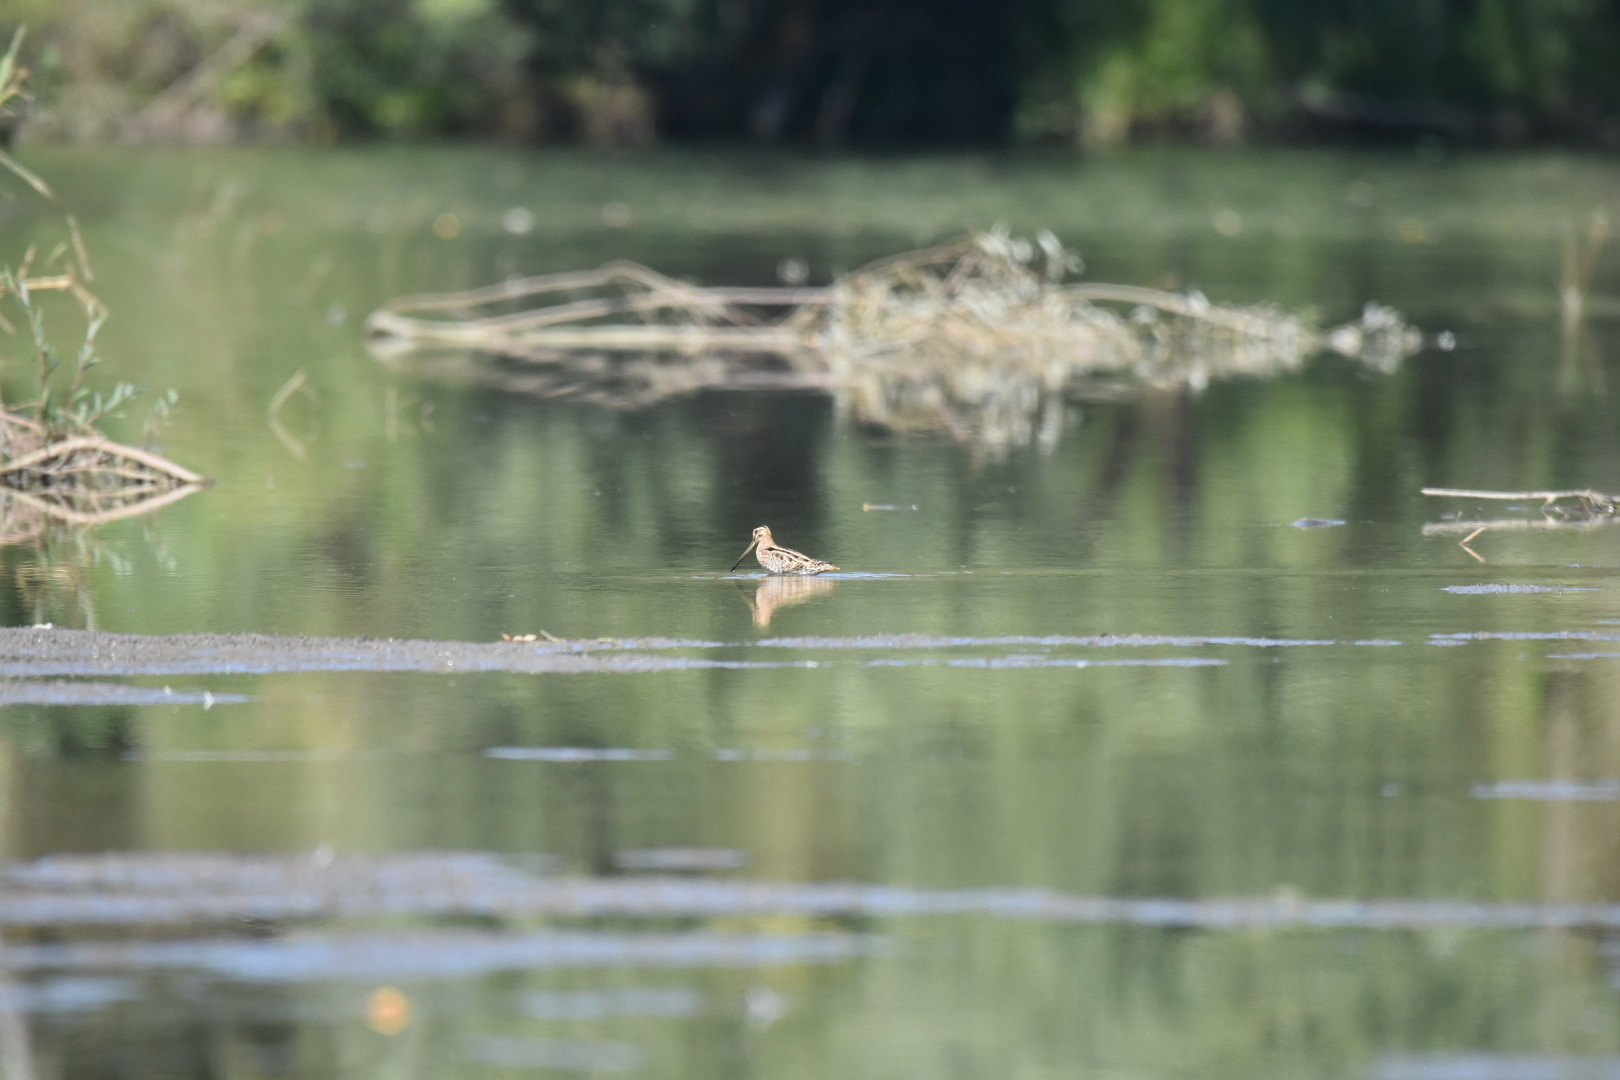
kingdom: Animalia
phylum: Chordata
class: Aves
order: Charadriiformes
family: Scolopacidae
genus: Gallinago
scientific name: Gallinago gallinago
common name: Common snipe
